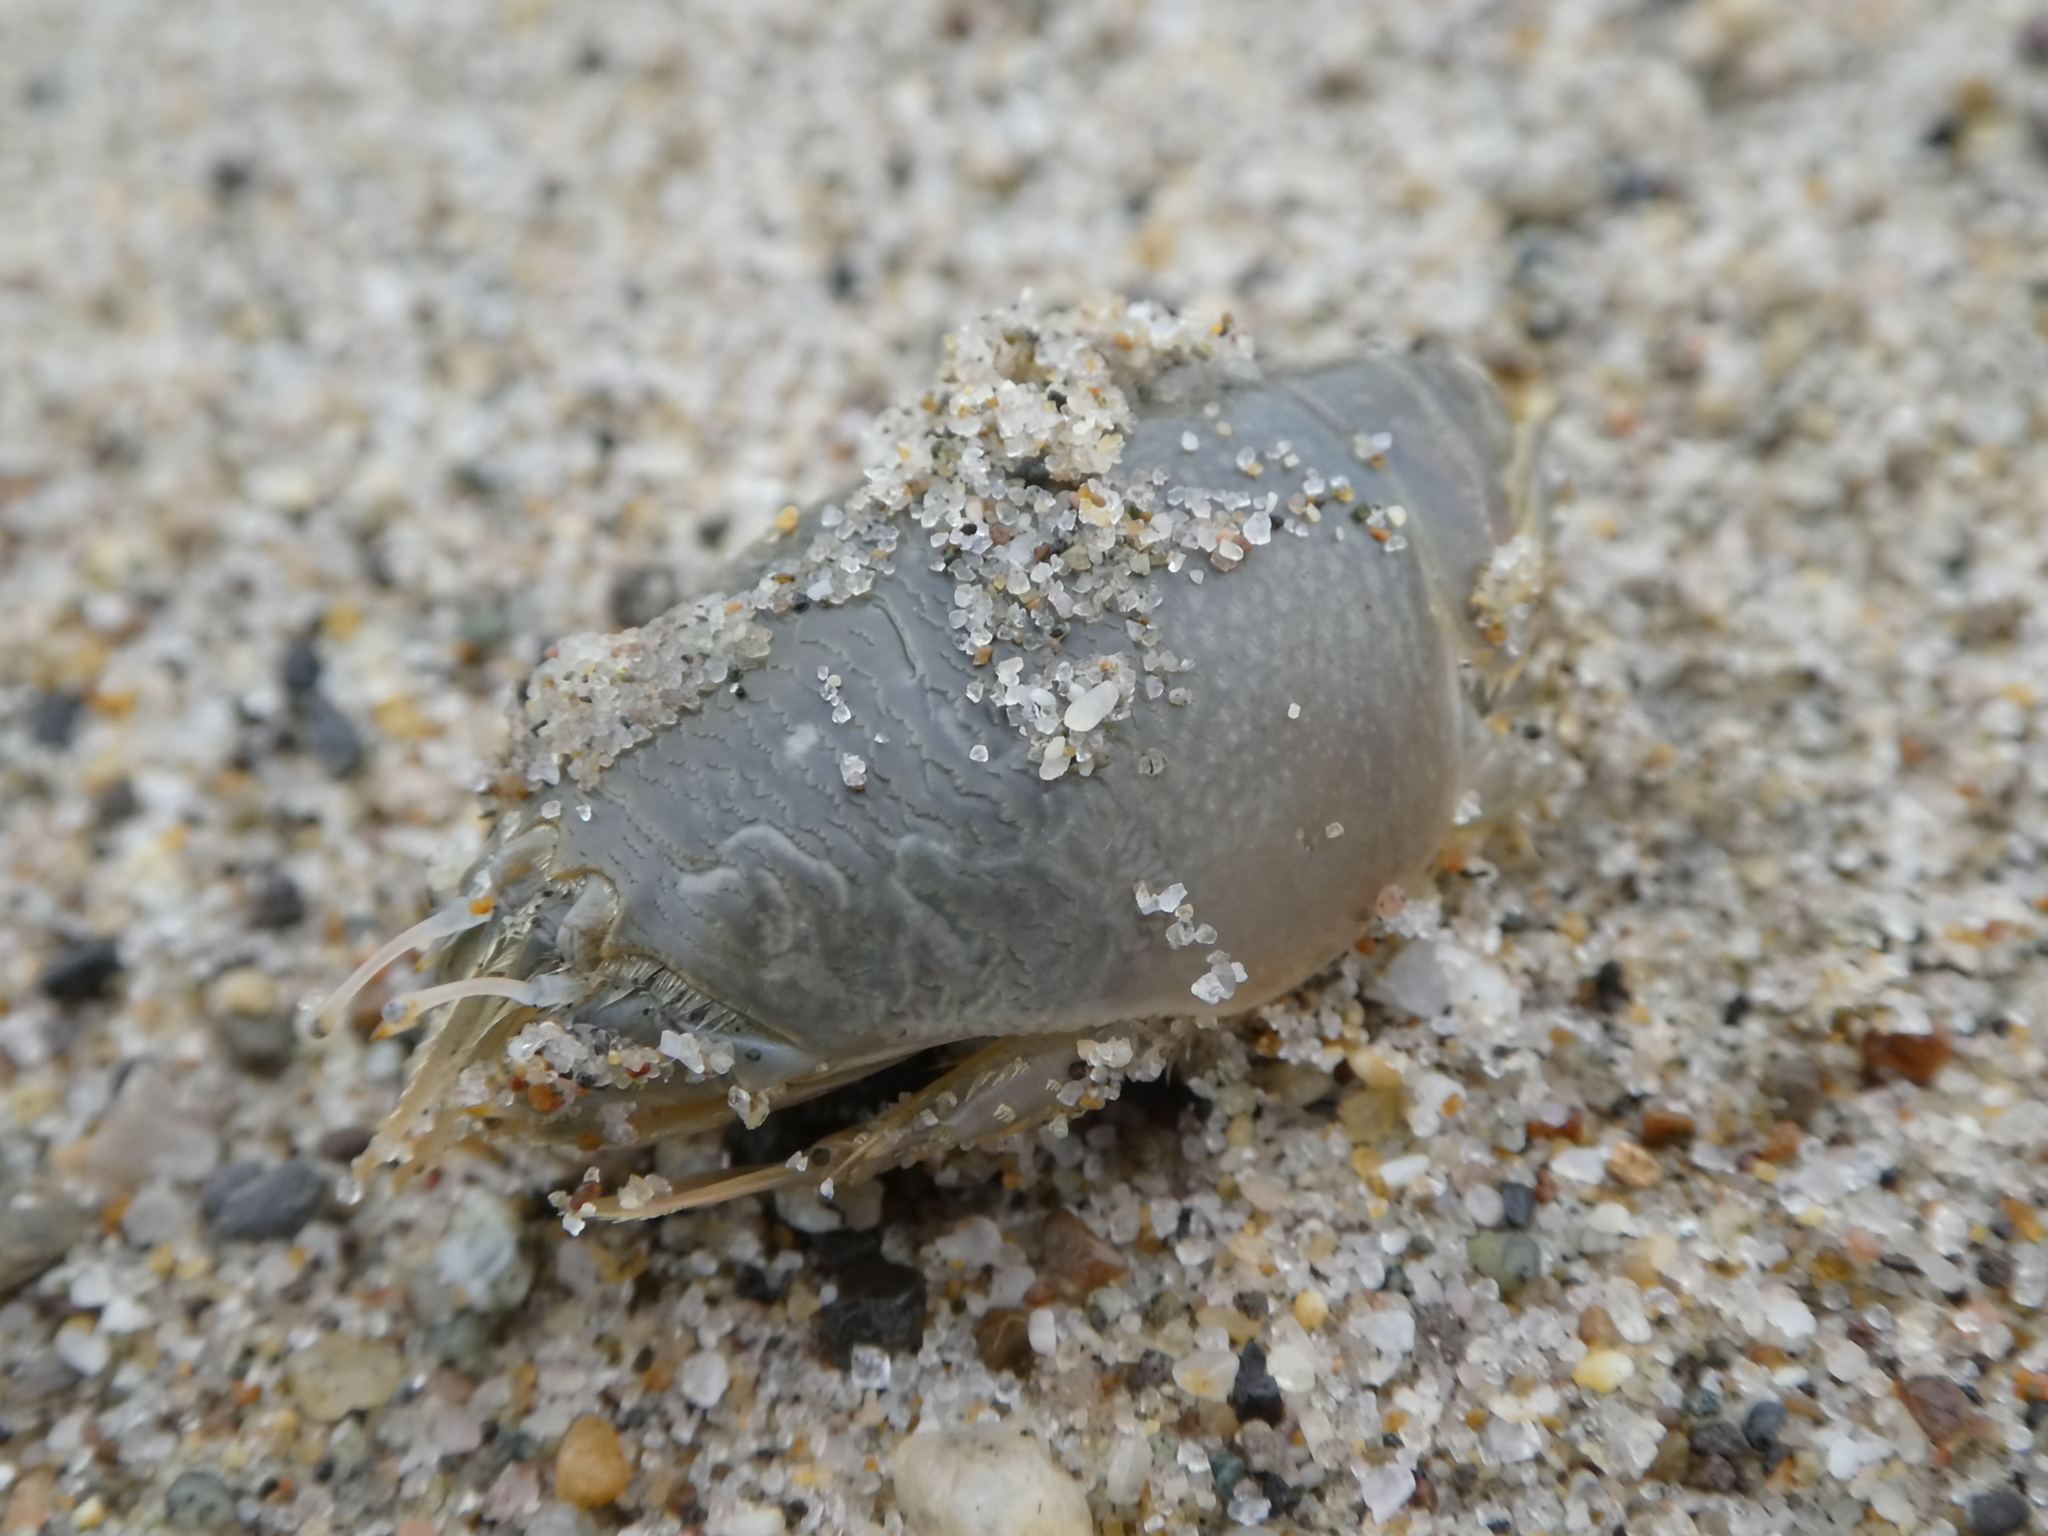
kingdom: Animalia
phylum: Arthropoda
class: Malacostraca
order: Decapoda
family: Hippidae
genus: Emerita
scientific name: Emerita analoga
